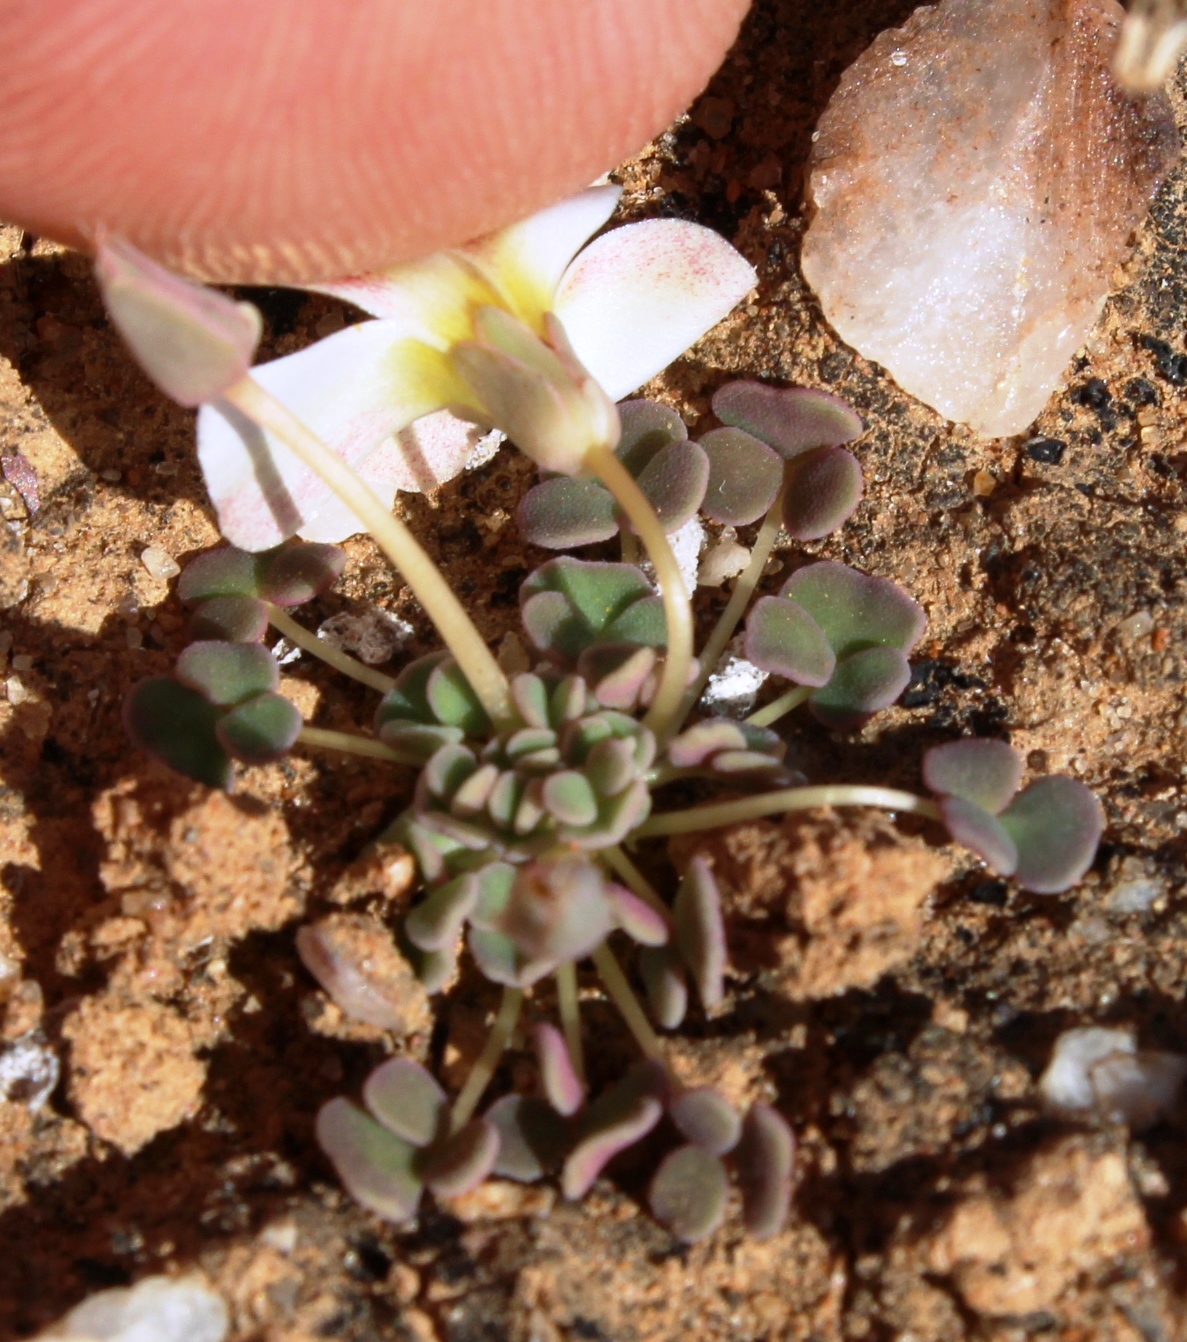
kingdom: Plantae
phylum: Tracheophyta
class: Magnoliopsida
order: Oxalidales
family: Oxalidaceae
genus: Oxalis
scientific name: Oxalis lichenoides
